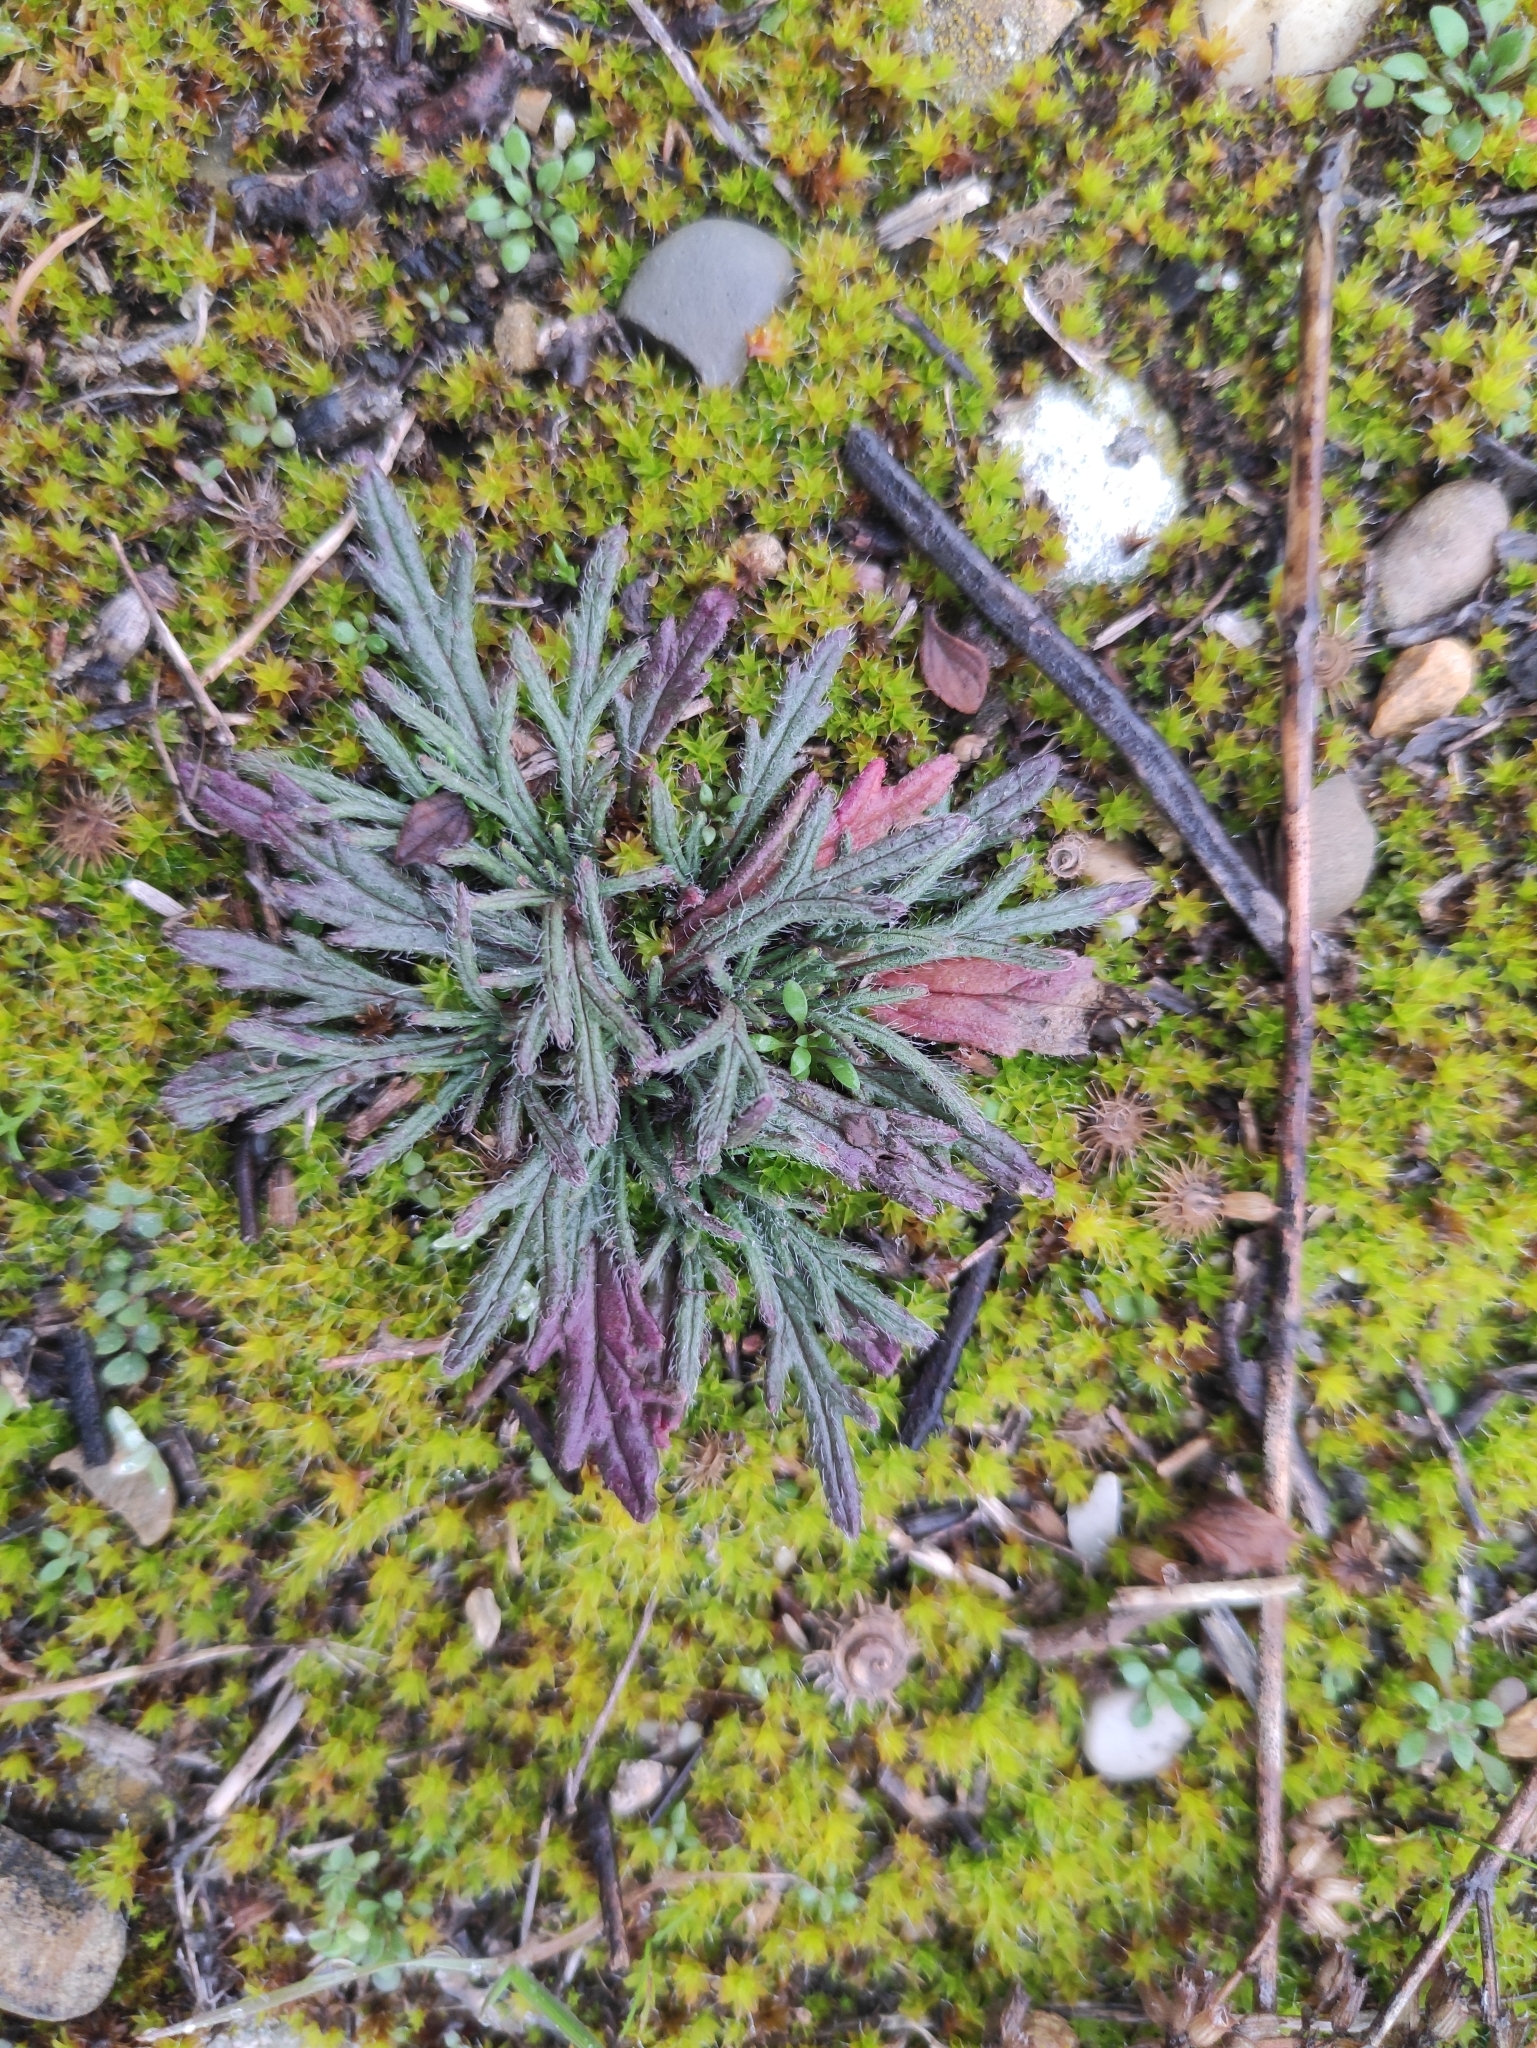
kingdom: Plantae
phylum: Tracheophyta
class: Magnoliopsida
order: Lamiales
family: Lamiaceae
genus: Ajuga
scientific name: Ajuga chamaepitys
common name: Ground-pine
